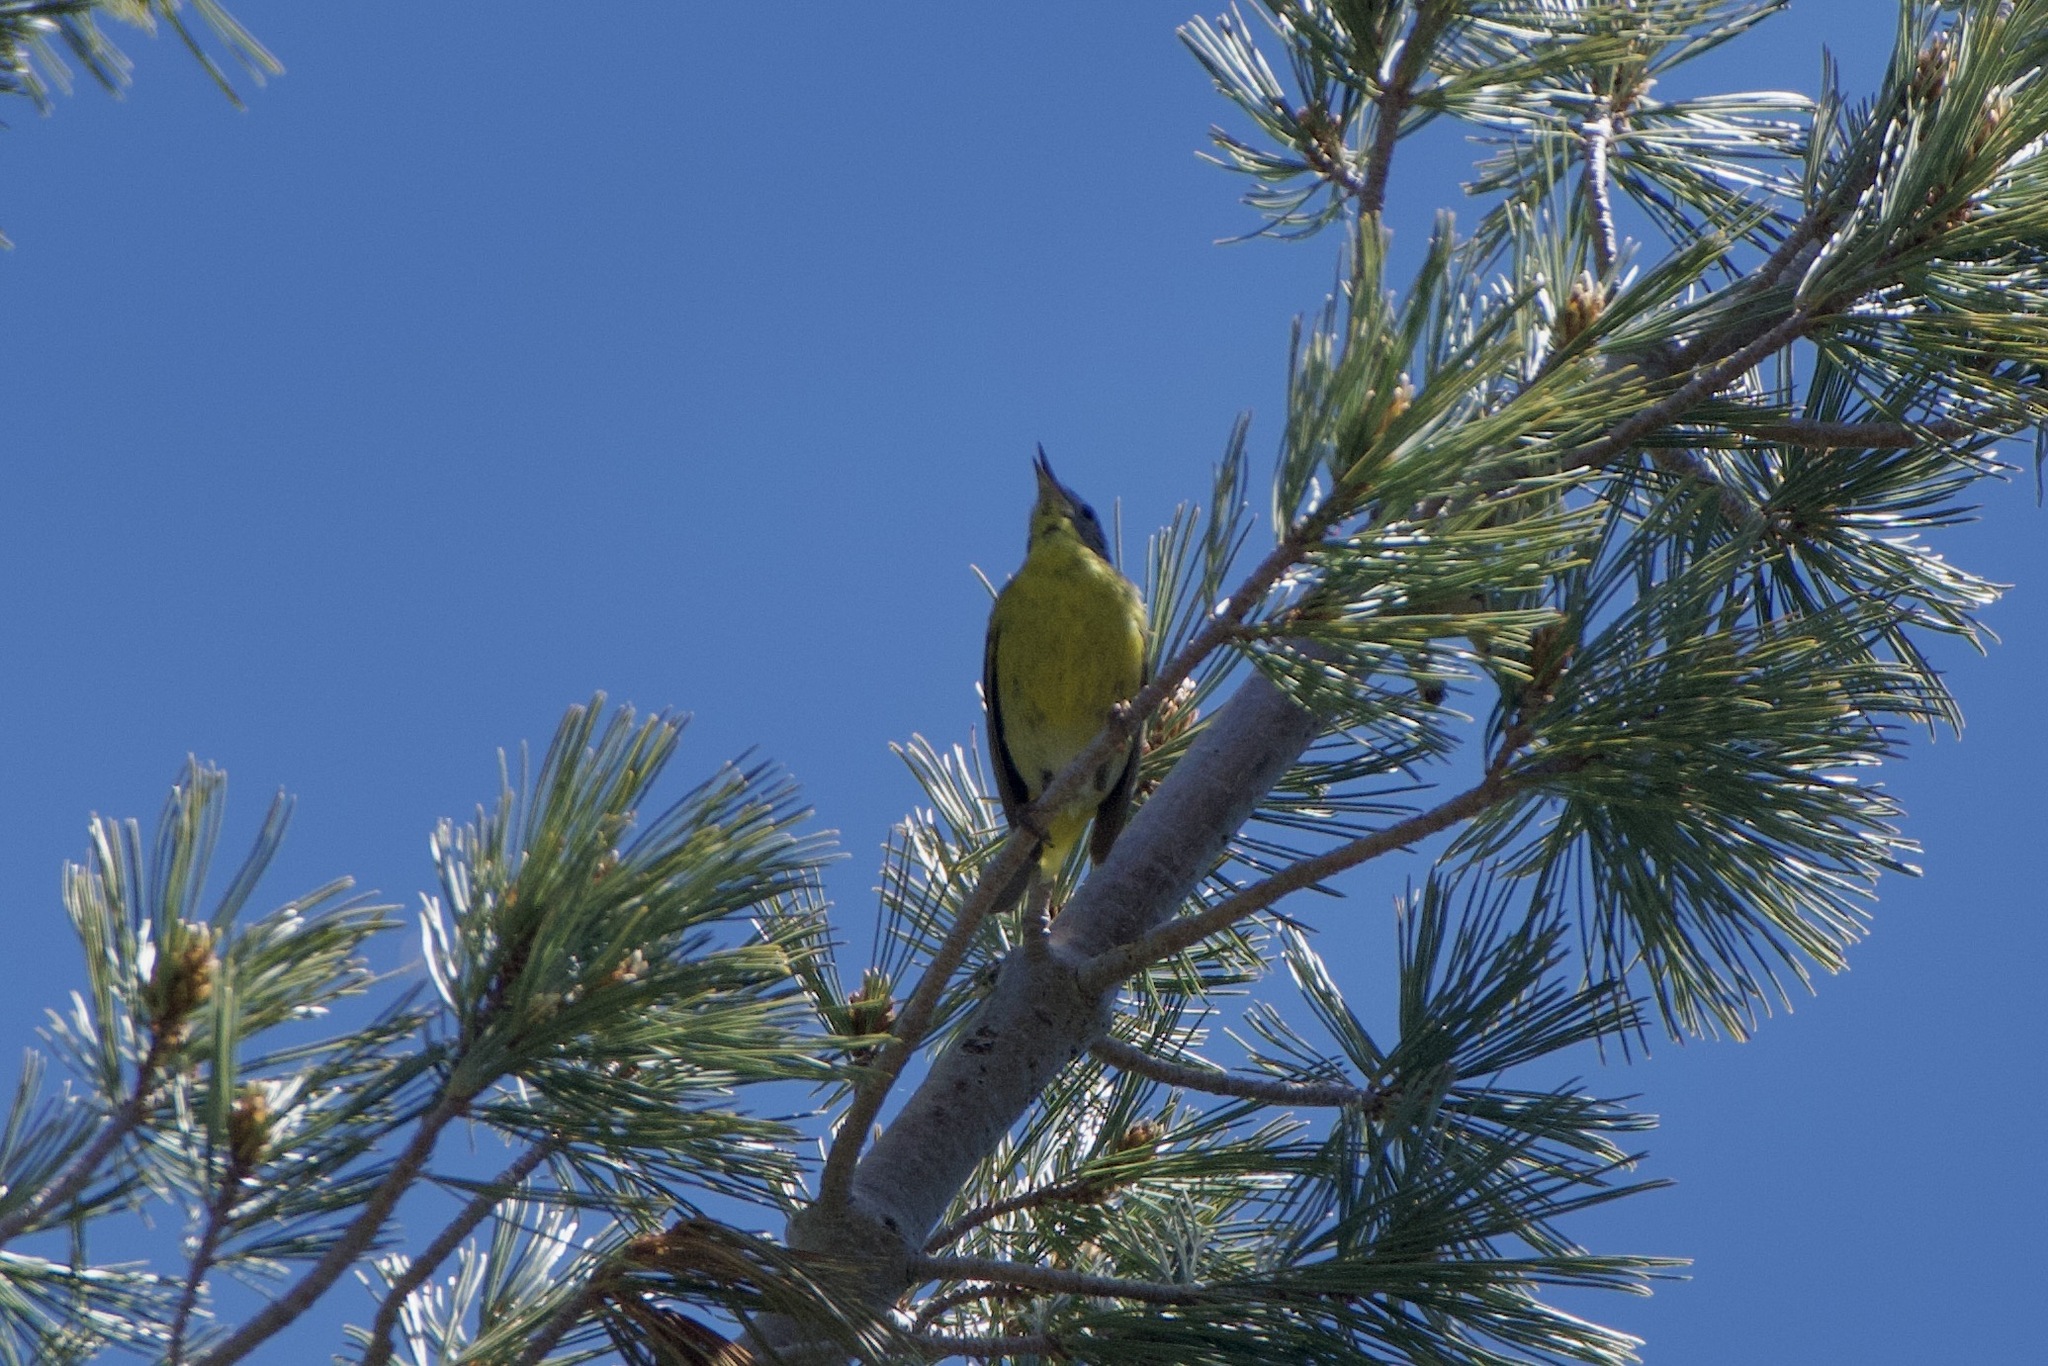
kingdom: Animalia
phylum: Chordata
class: Aves
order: Passeriformes
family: Parulidae
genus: Leiothlypis
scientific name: Leiothlypis ruficapilla
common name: Nashville warbler
